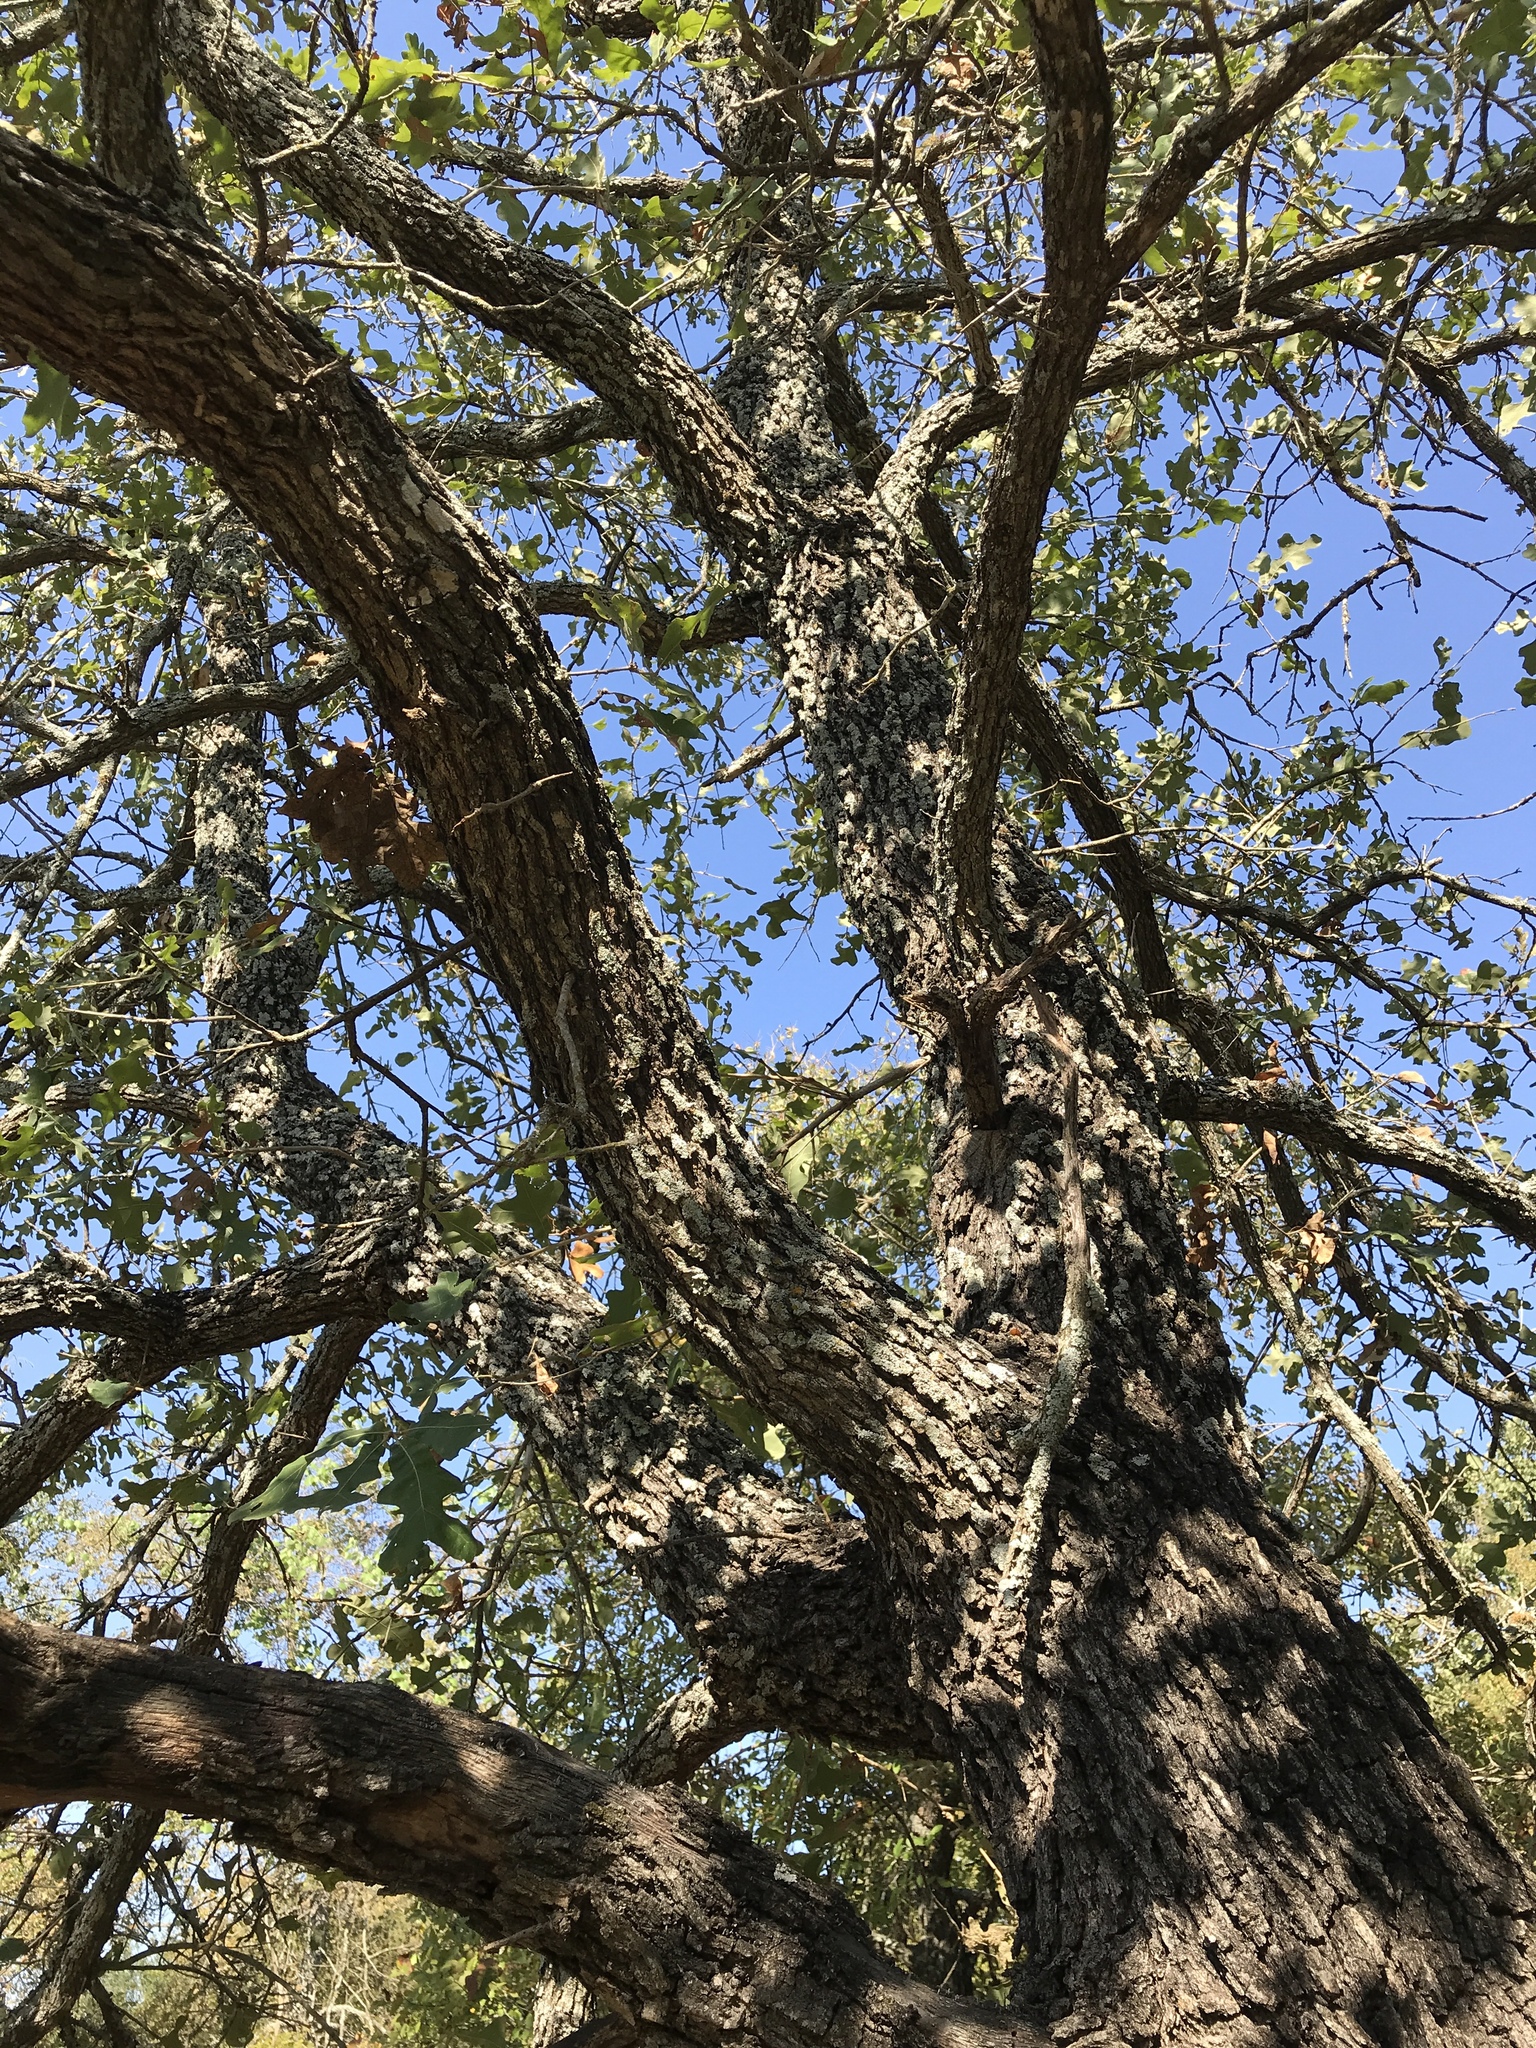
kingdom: Plantae
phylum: Tracheophyta
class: Magnoliopsida
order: Fagales
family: Fagaceae
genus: Quercus
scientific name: Quercus stellata
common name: Post oak
